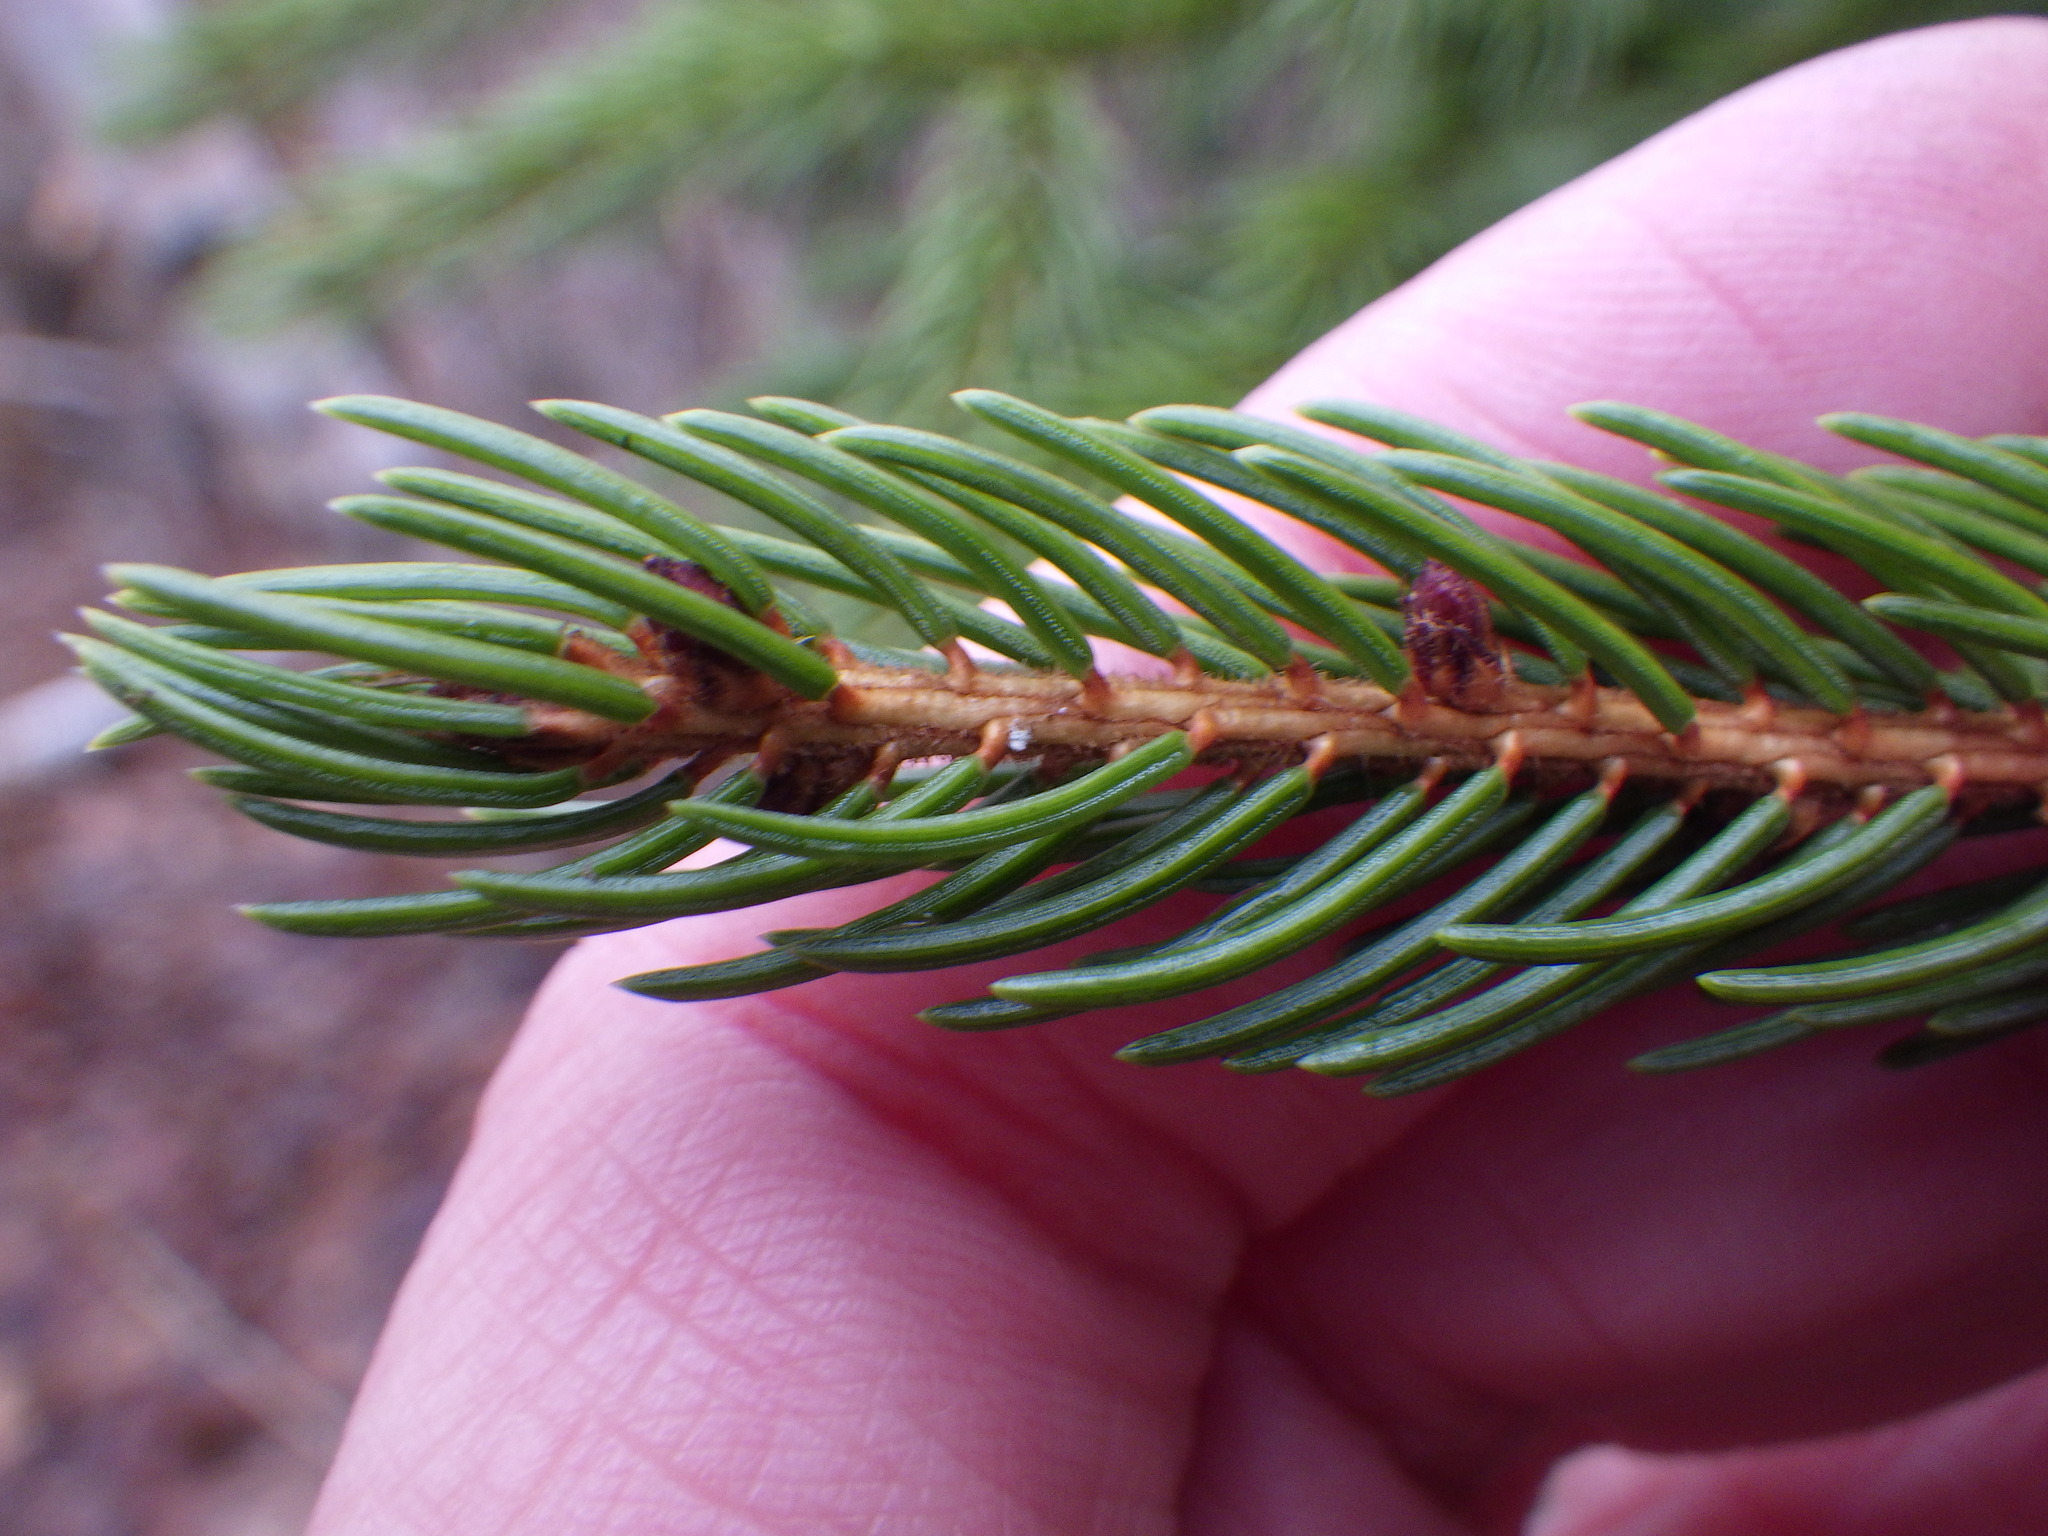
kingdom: Plantae
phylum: Tracheophyta
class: Pinopsida
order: Pinales
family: Pinaceae
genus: Picea
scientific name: Picea rubens
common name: Red spruce
